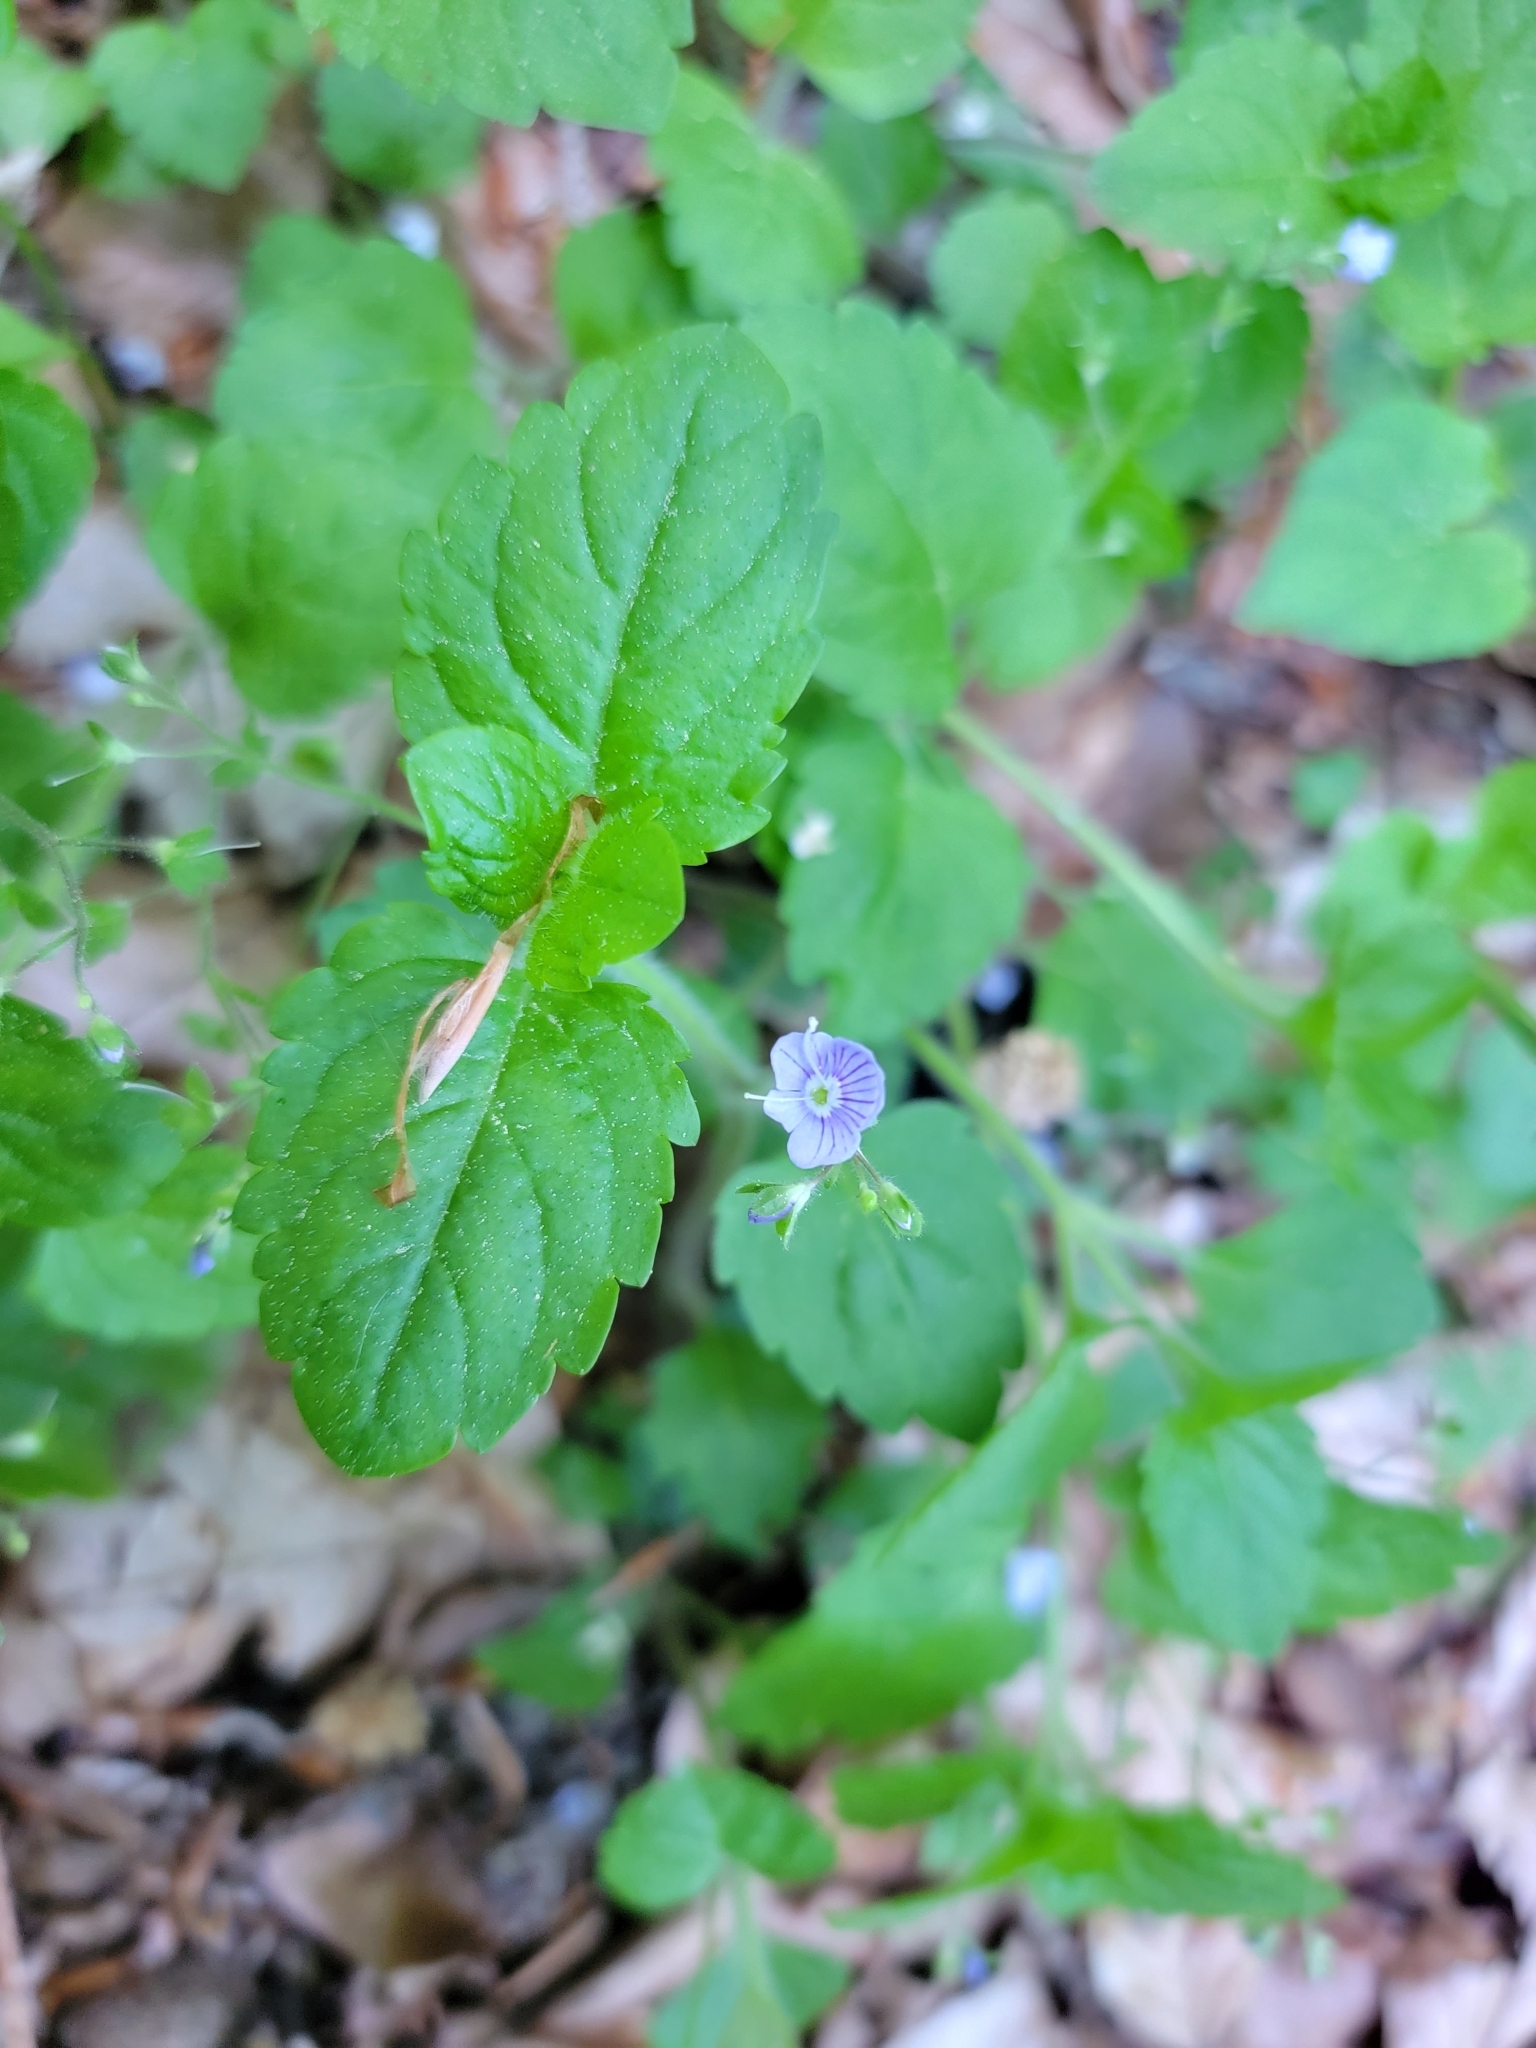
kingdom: Plantae
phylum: Tracheophyta
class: Magnoliopsida
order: Lamiales
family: Plantaginaceae
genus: Veronica
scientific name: Veronica montana
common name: Wood speedwell
